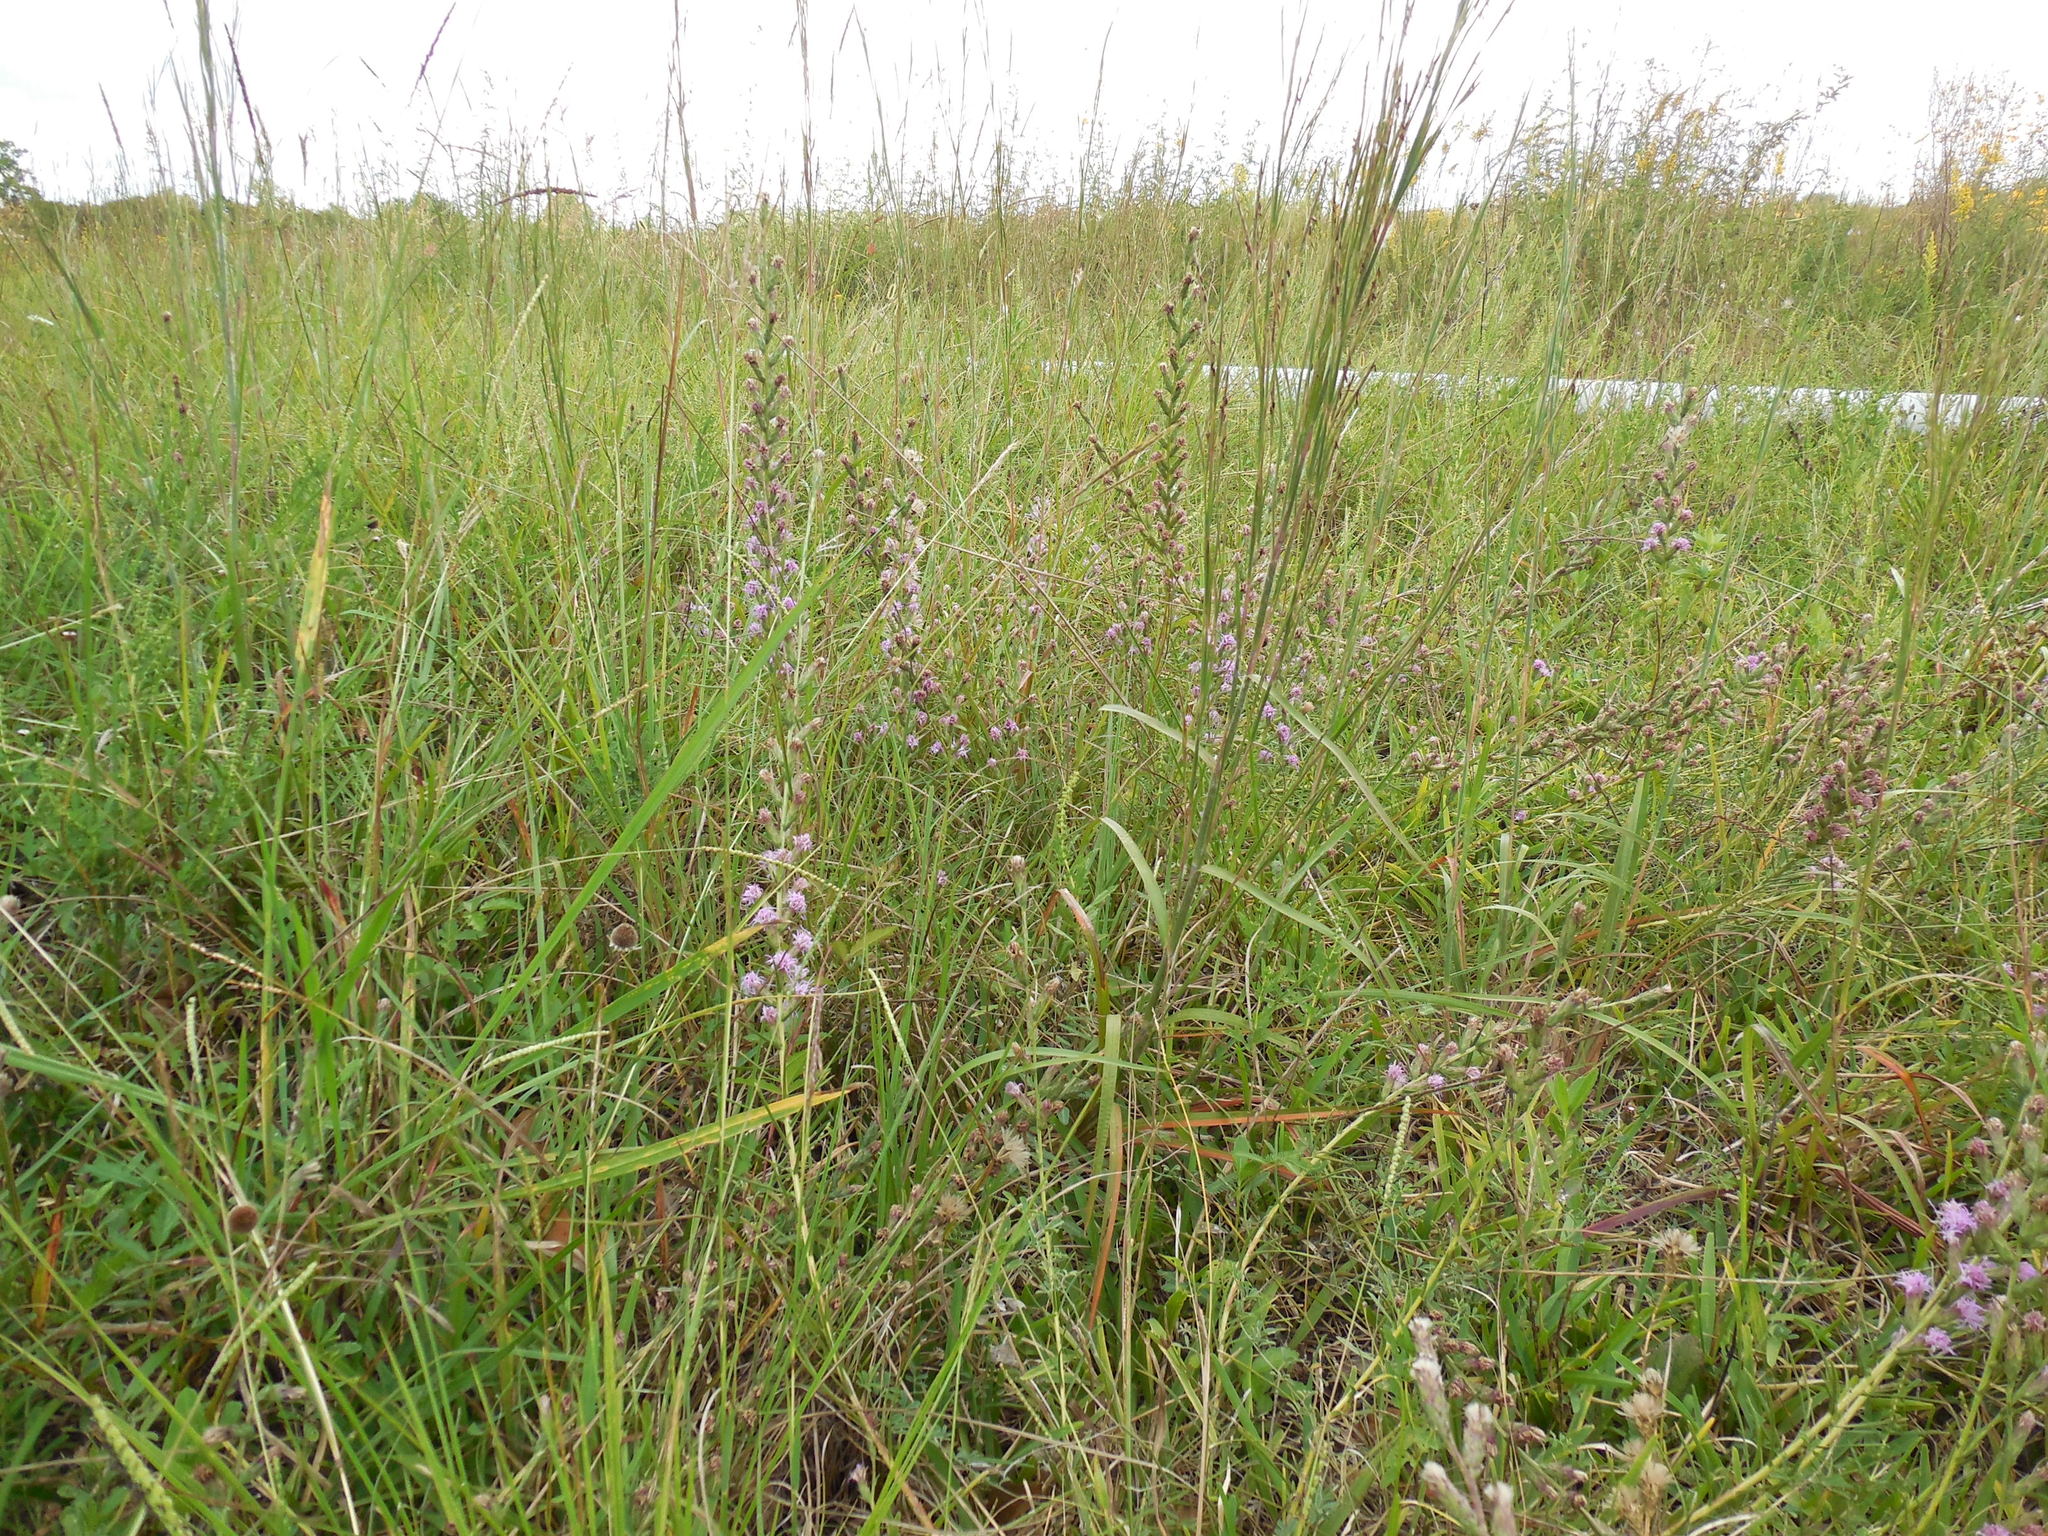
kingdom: Plantae
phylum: Tracheophyta
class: Magnoliopsida
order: Asterales
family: Asteraceae
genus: Liatris
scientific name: Liatris bracteata
